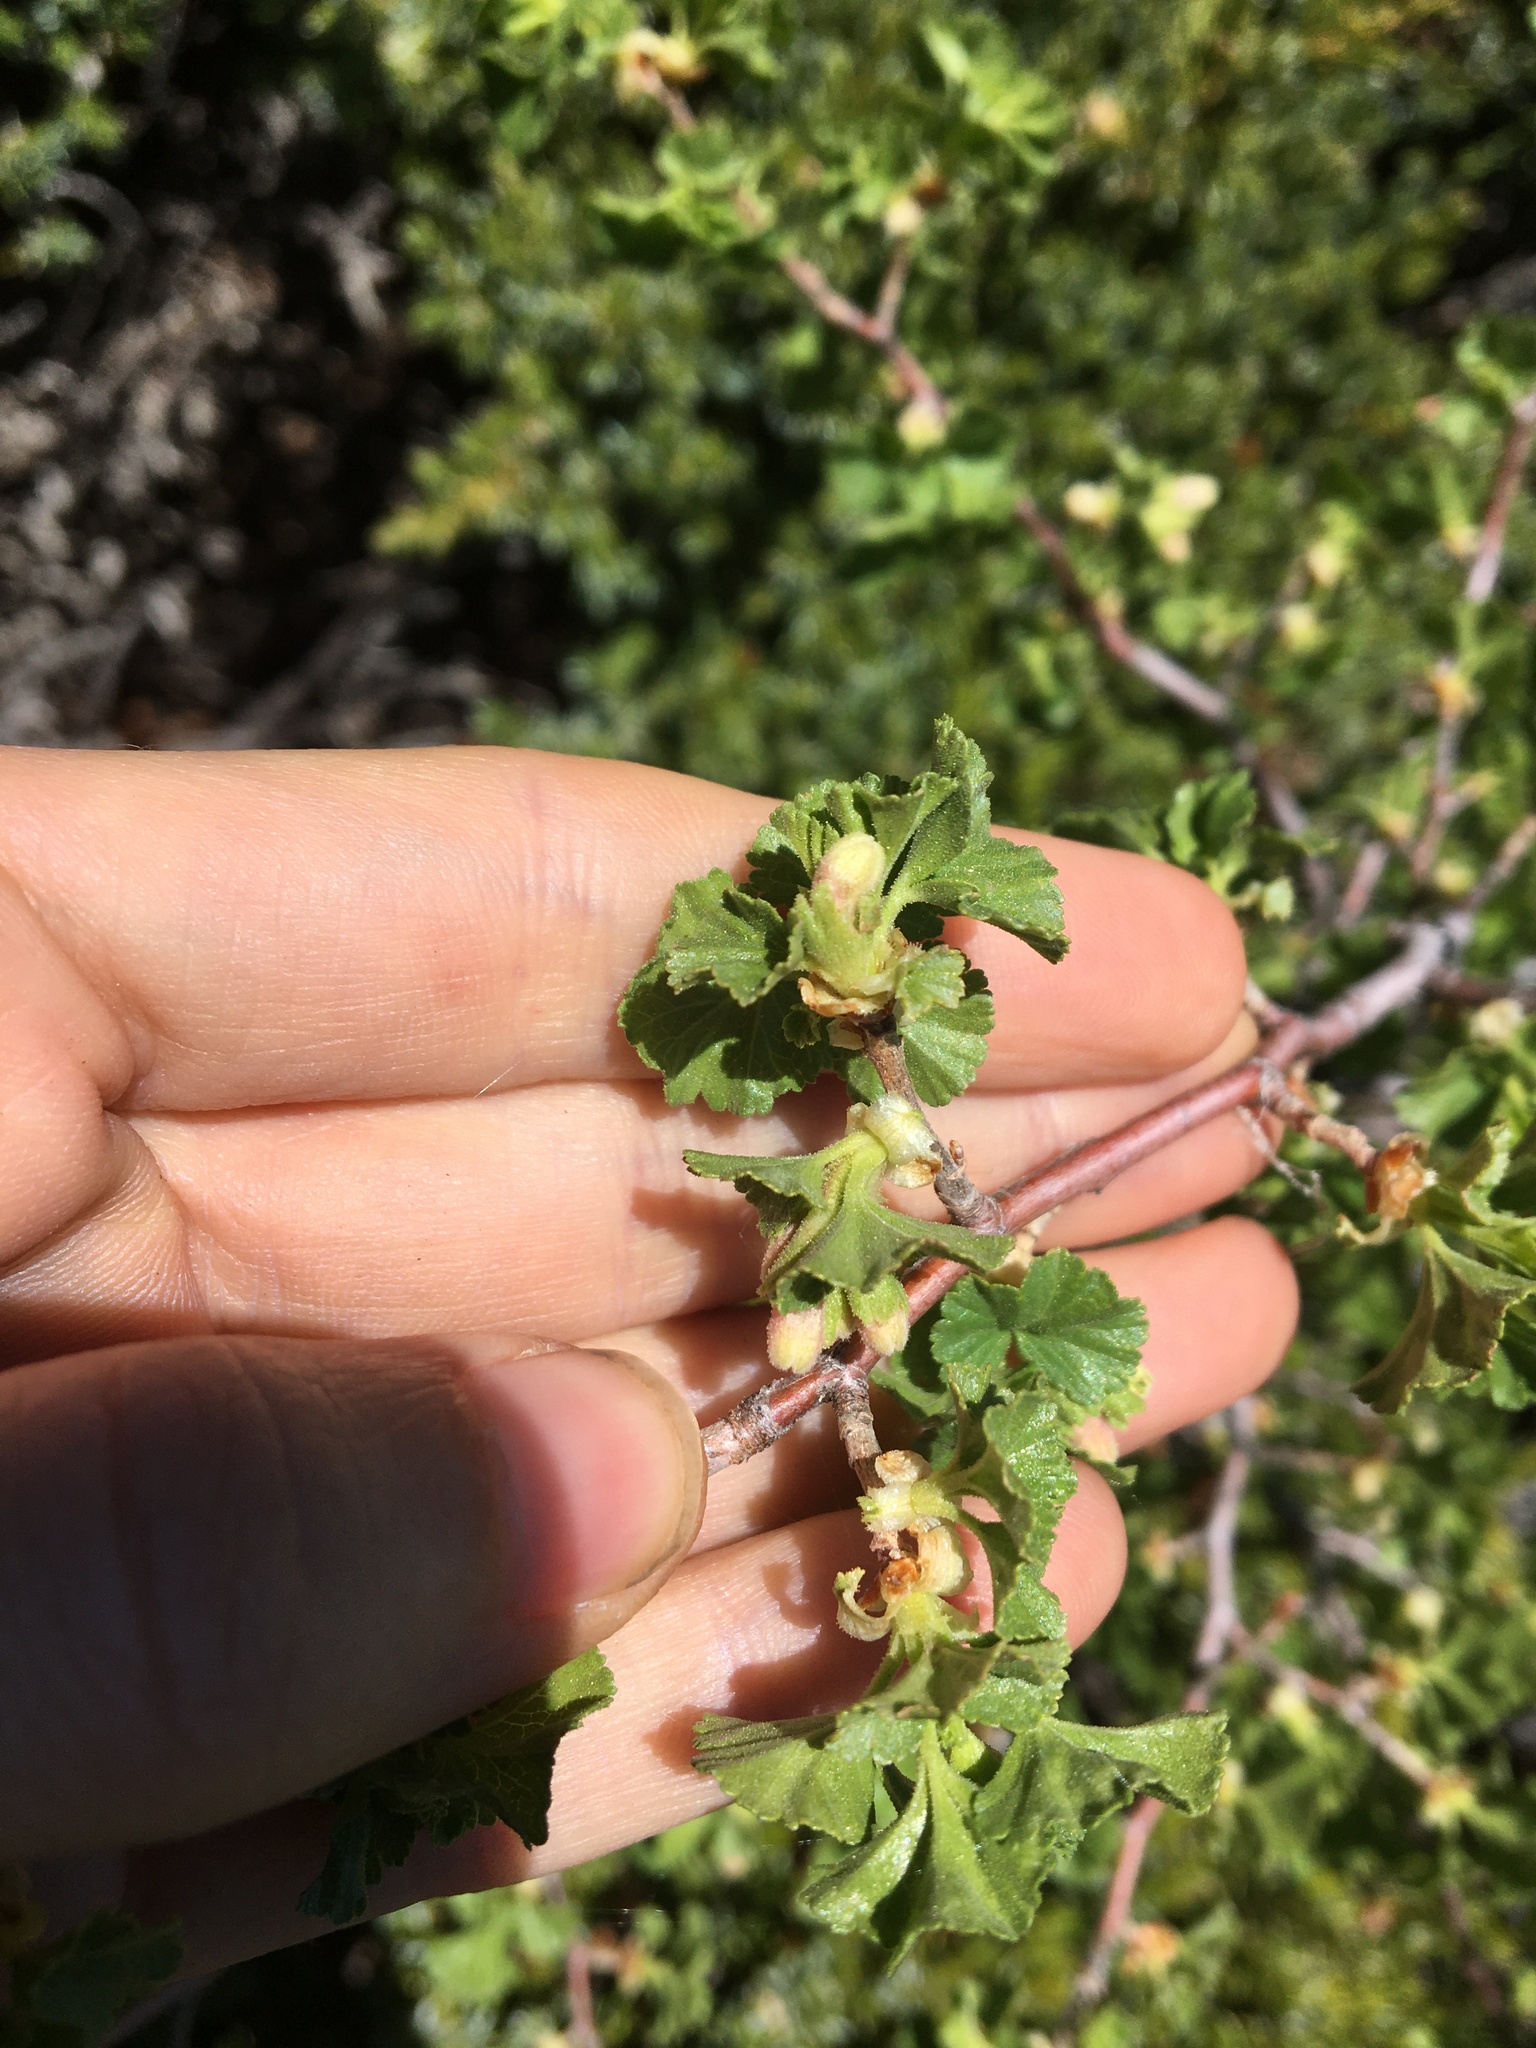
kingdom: Plantae
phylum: Tracheophyta
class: Magnoliopsida
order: Saxifragales
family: Grossulariaceae
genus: Ribes
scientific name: Ribes cereum
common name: Wax currant
